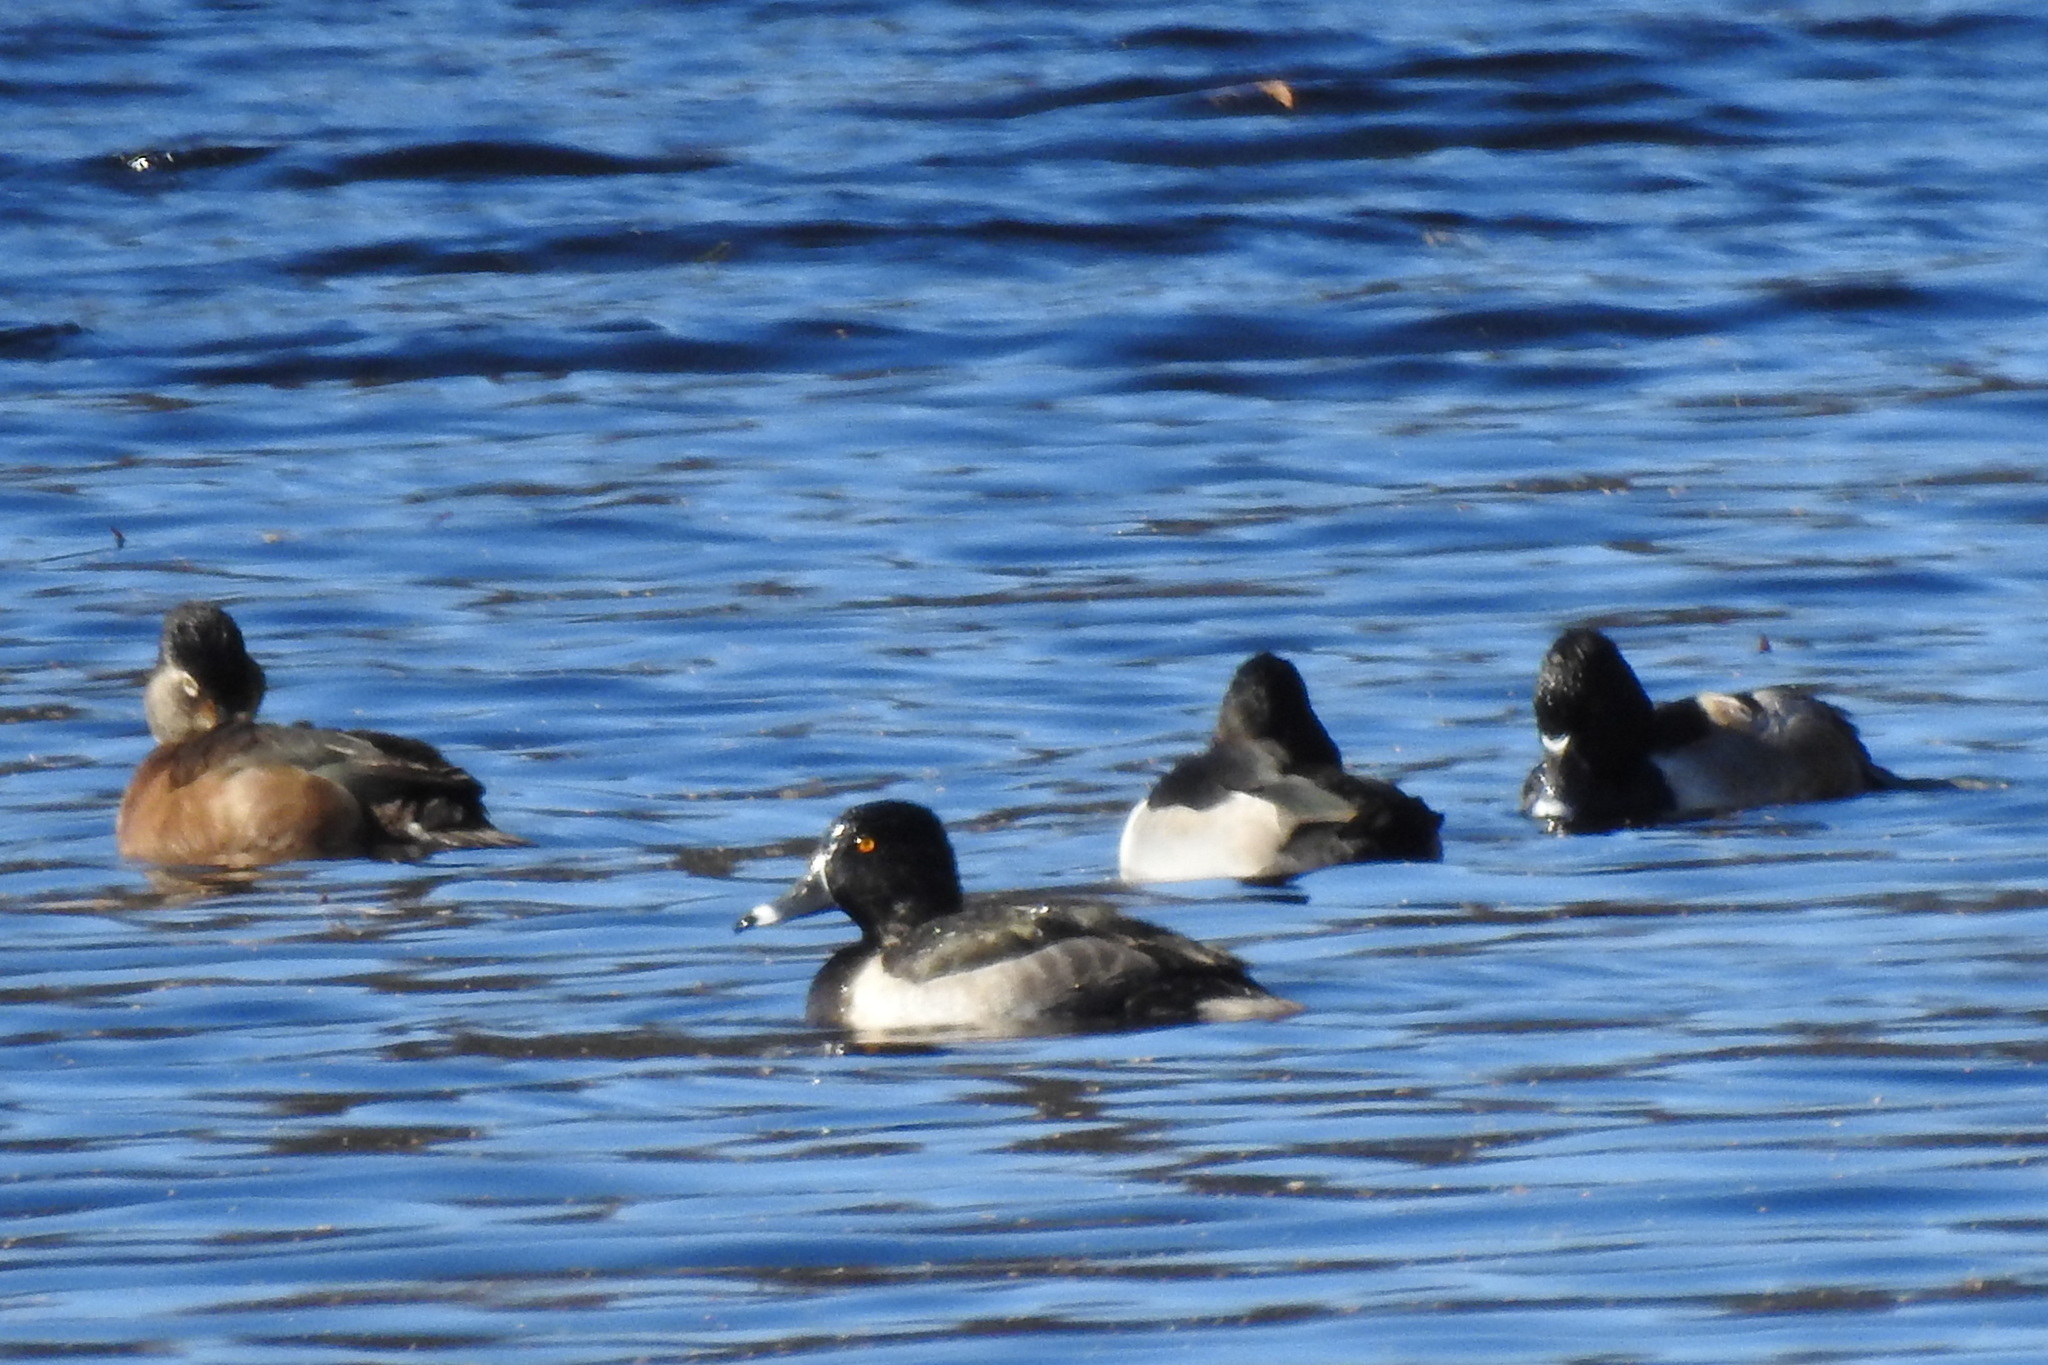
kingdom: Animalia
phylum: Chordata
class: Aves
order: Anseriformes
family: Anatidae
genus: Aythya
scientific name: Aythya collaris
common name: Ring-necked duck
